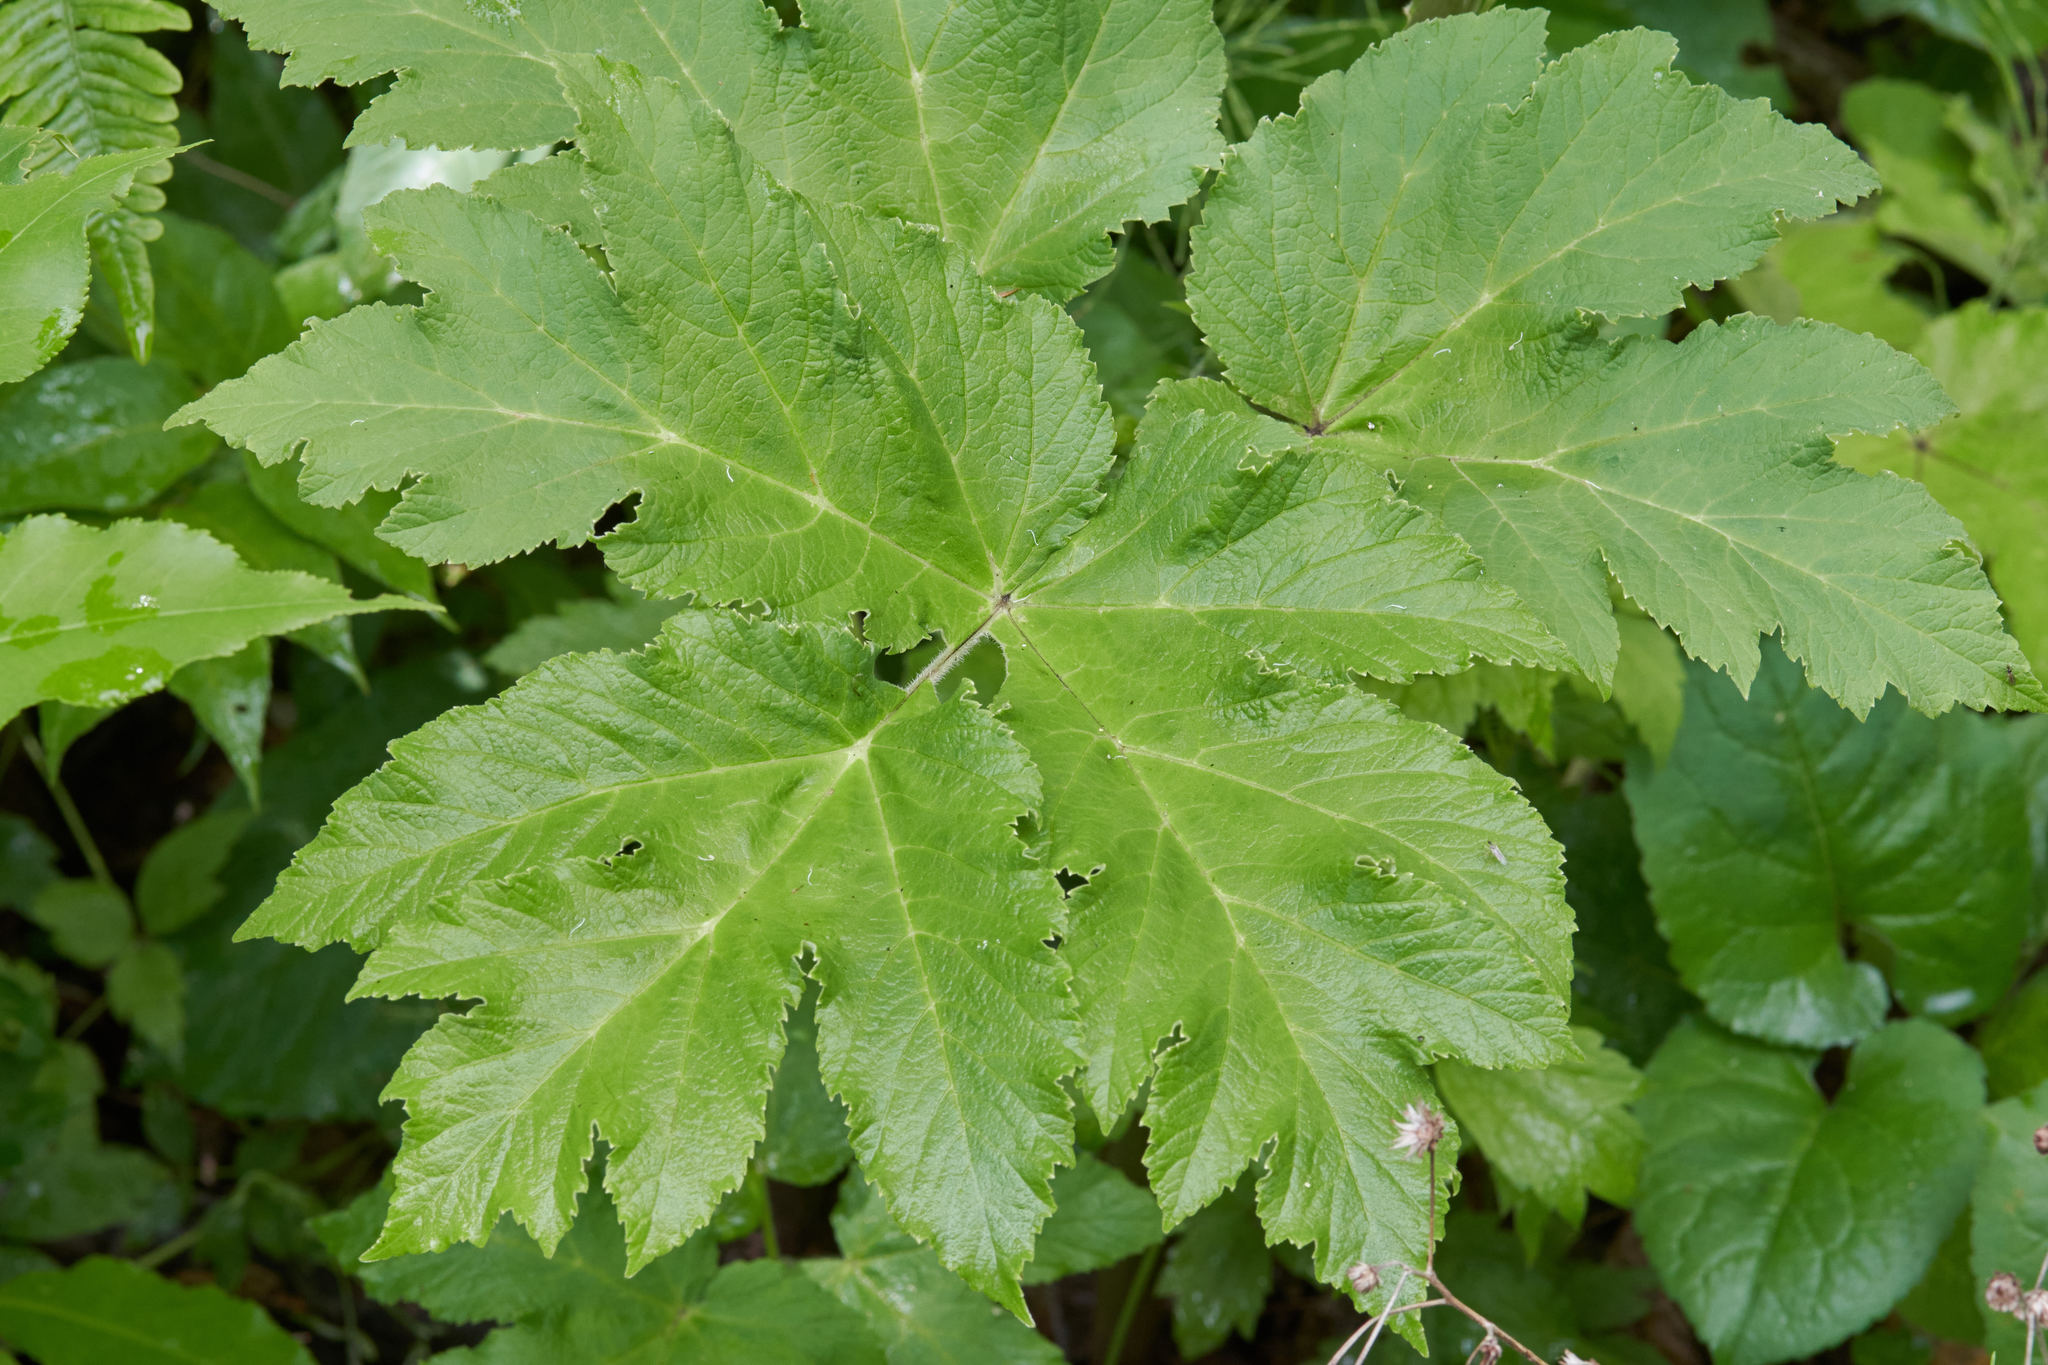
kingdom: Plantae
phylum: Tracheophyta
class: Magnoliopsida
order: Apiales
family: Apiaceae
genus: Heracleum
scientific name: Heracleum maximum
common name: American cow parsnip
